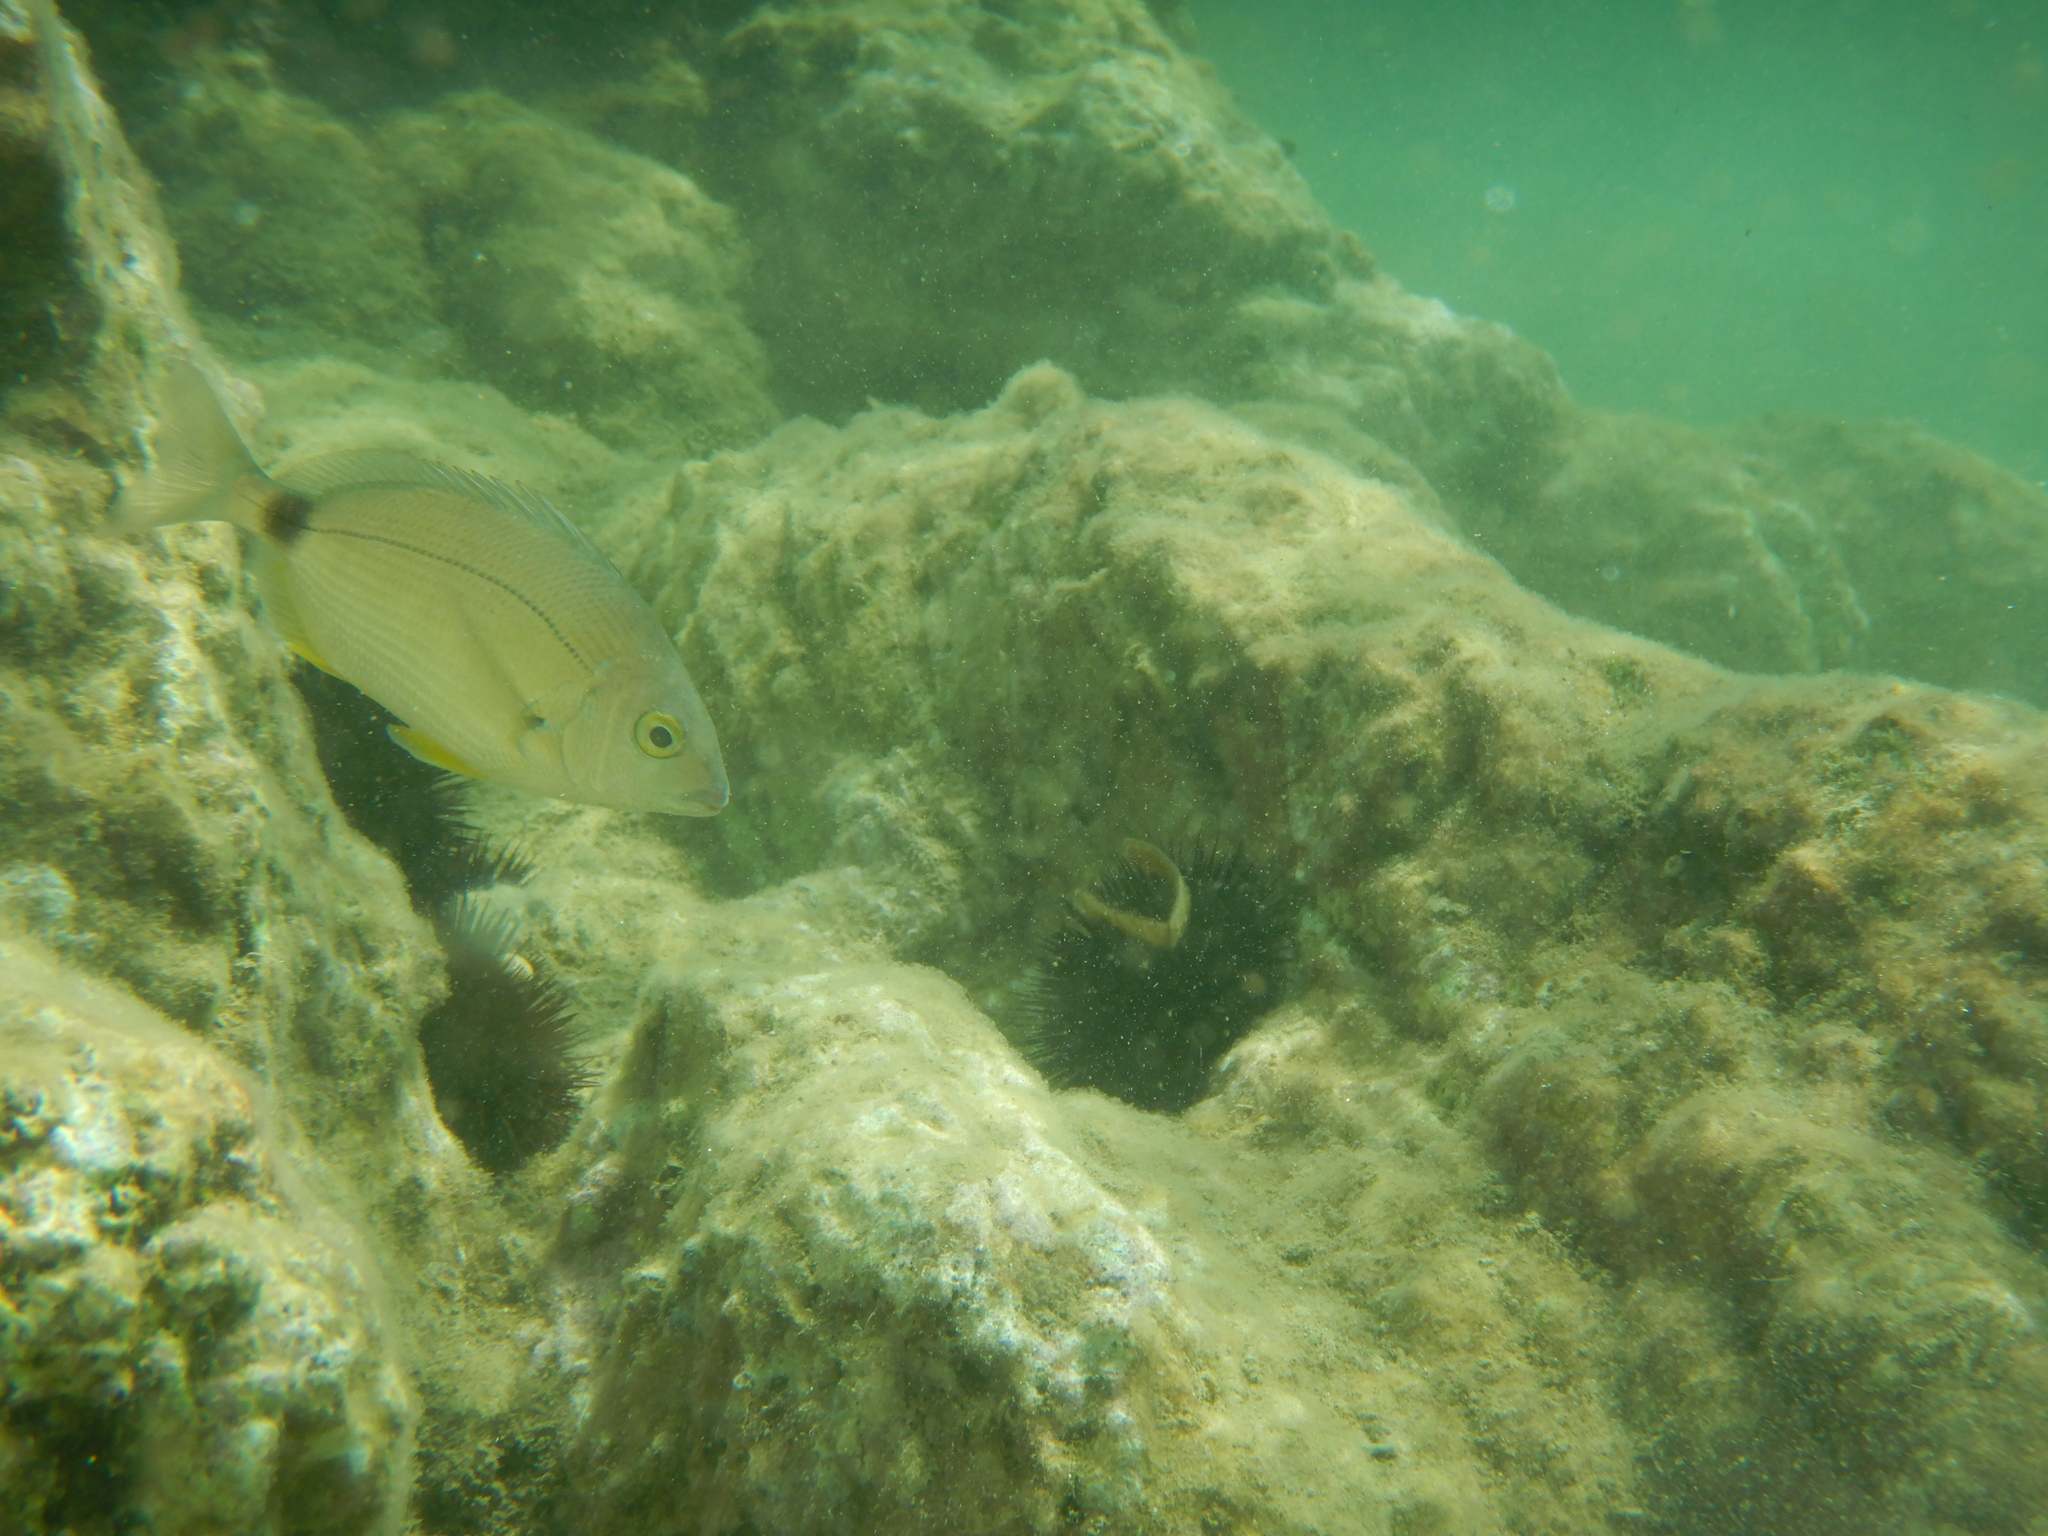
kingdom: Animalia
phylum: Chordata
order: Perciformes
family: Sparidae
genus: Diplodus
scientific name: Diplodus annularis
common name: Annular seabream
